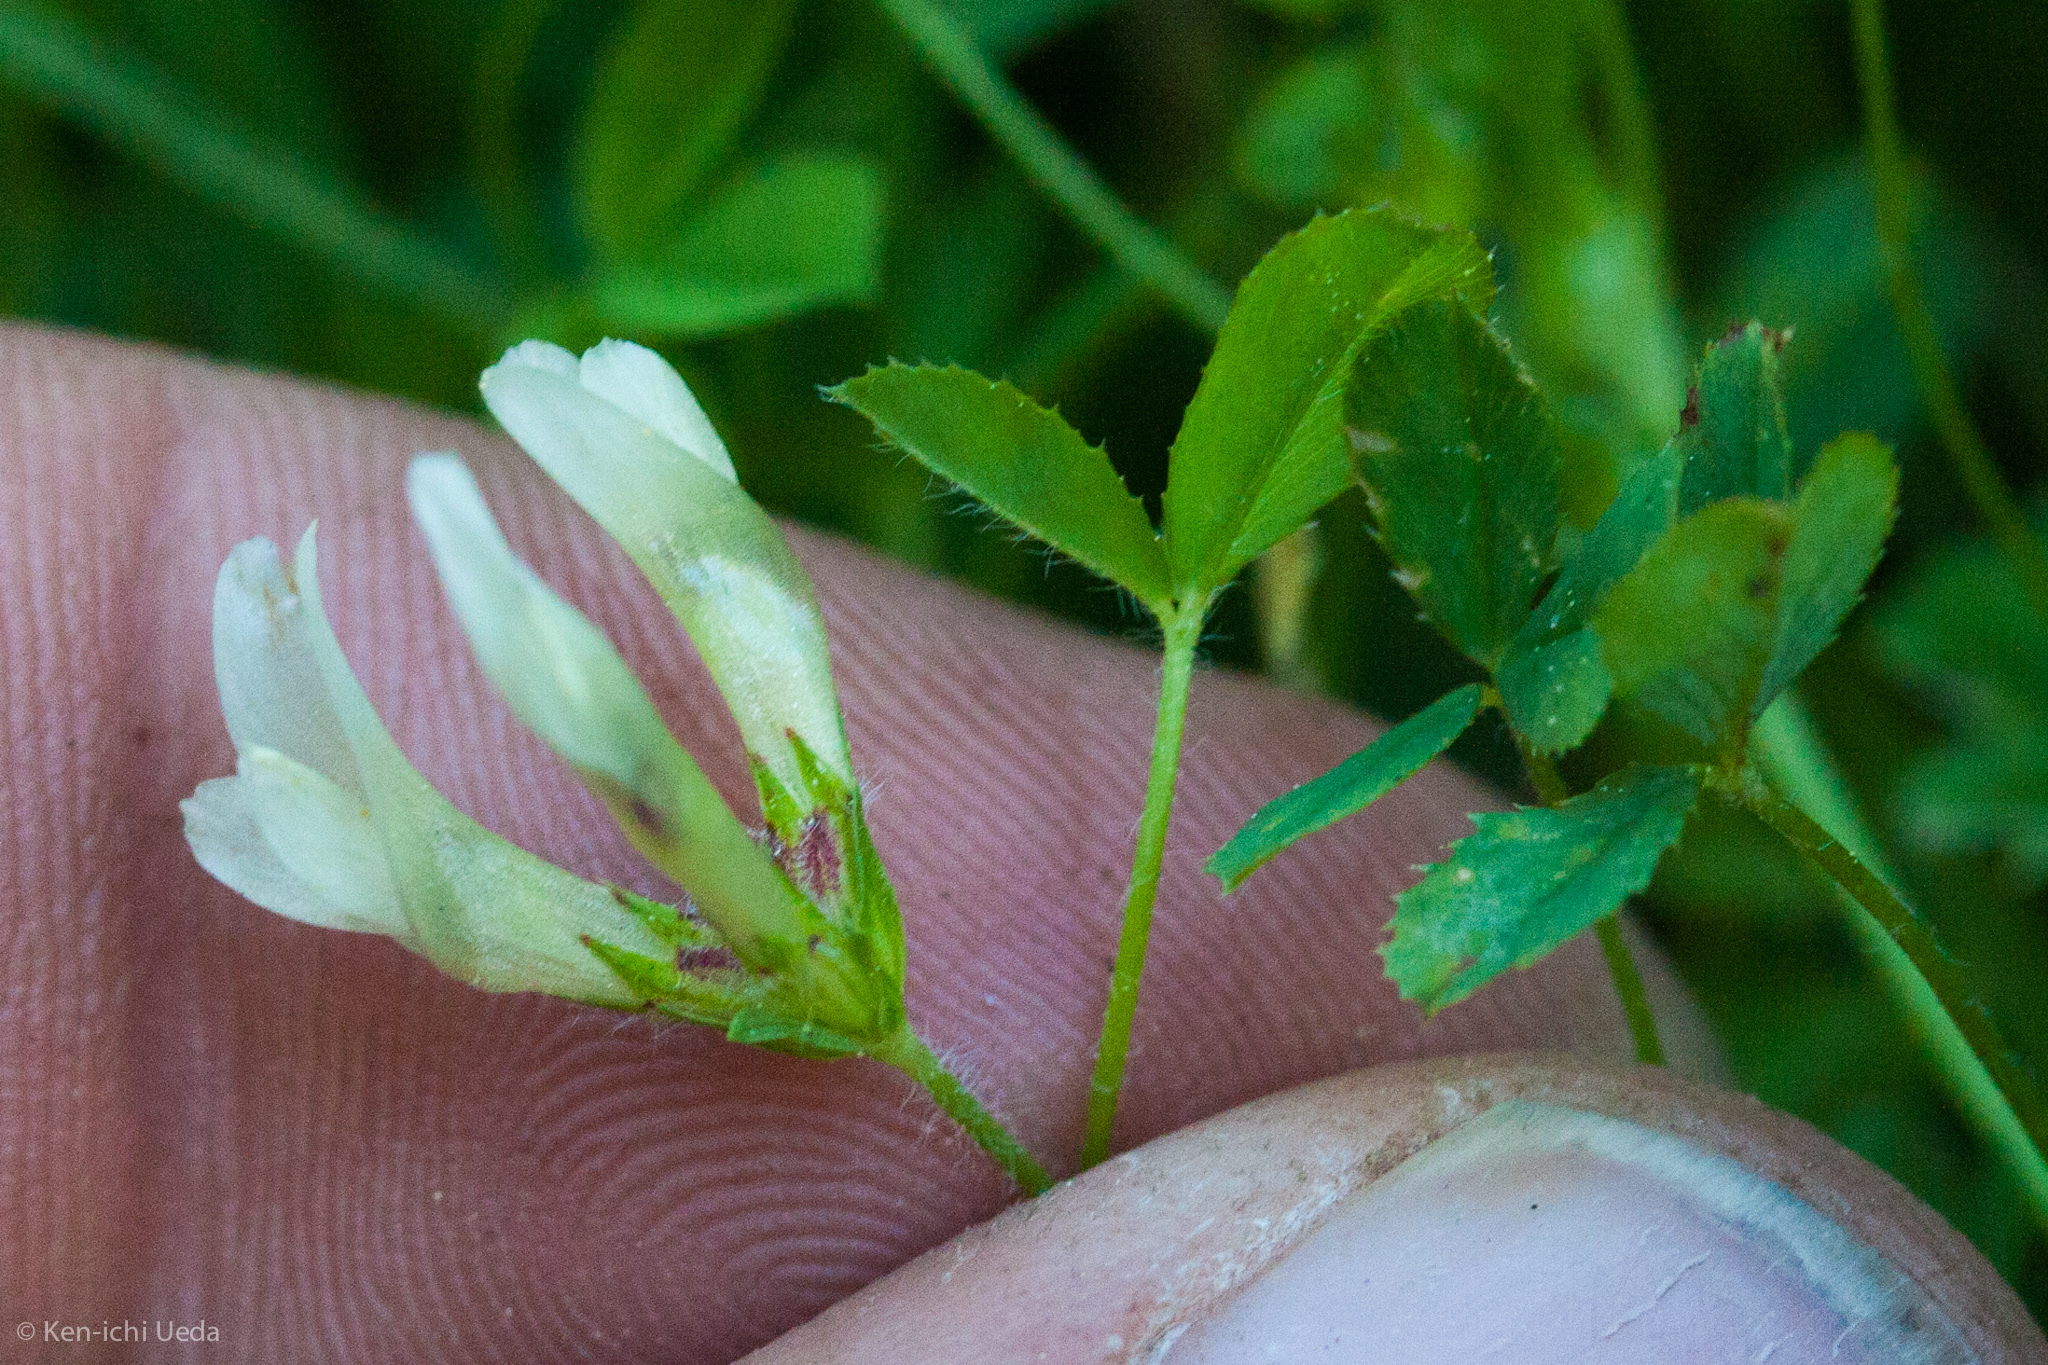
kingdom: Plantae
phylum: Tracheophyta
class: Magnoliopsida
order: Fabales
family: Fabaceae
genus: Trifolium
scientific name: Trifolium monanthum
